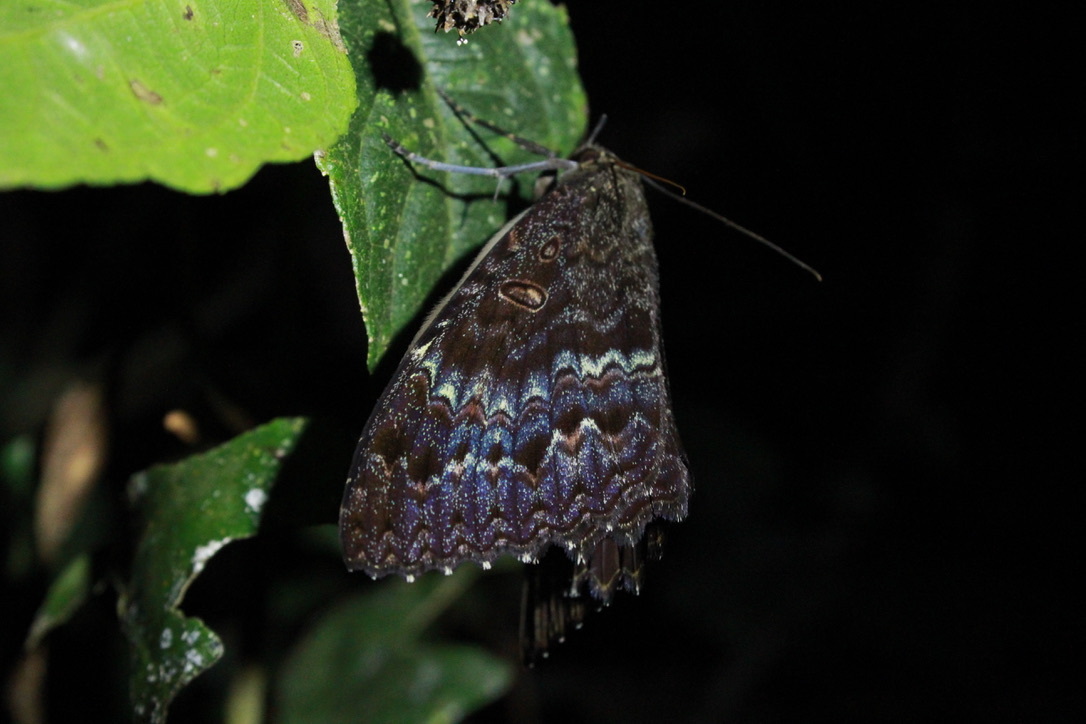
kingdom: Animalia
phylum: Arthropoda
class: Insecta
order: Lepidoptera
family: Erebidae
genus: Letis
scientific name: Letis iphianasse
